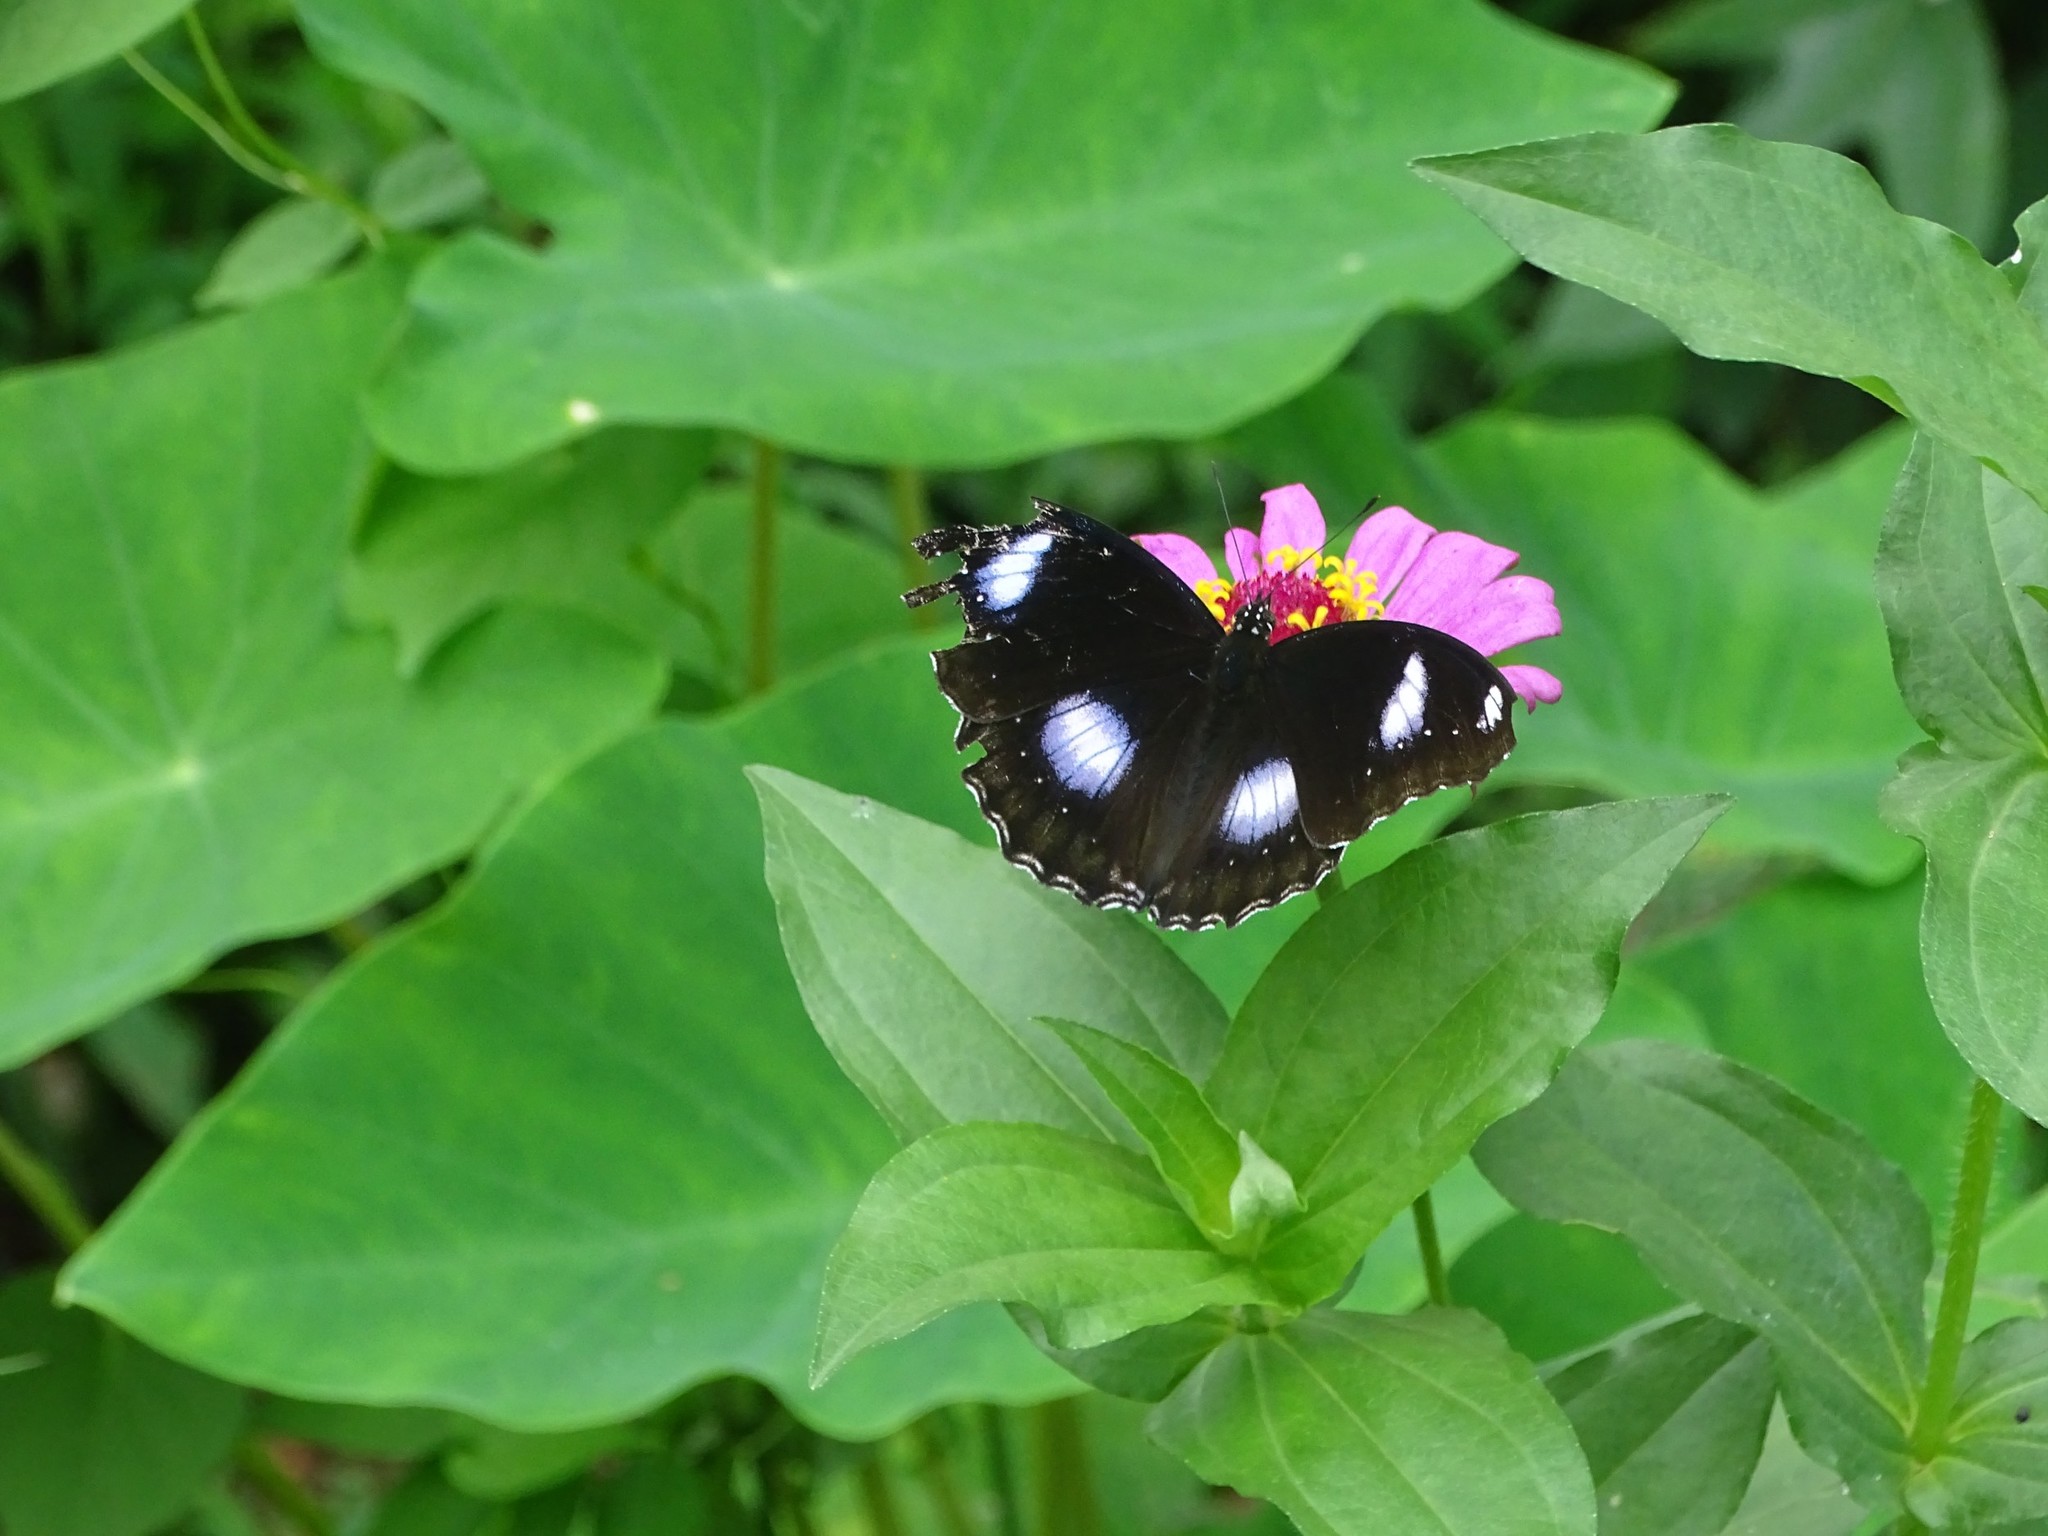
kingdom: Animalia
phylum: Arthropoda
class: Insecta
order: Lepidoptera
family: Nymphalidae
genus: Hypolimnas
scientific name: Hypolimnas bolina
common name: Great eggfly
